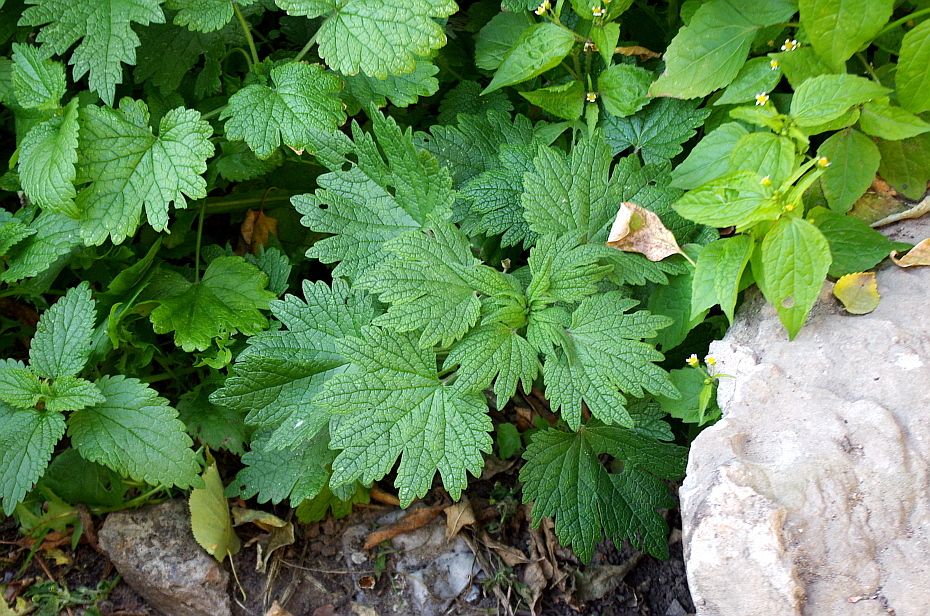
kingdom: Plantae
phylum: Tracheophyta
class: Magnoliopsida
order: Lamiales
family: Lamiaceae
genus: Leonurus
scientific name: Leonurus quinquelobatus
